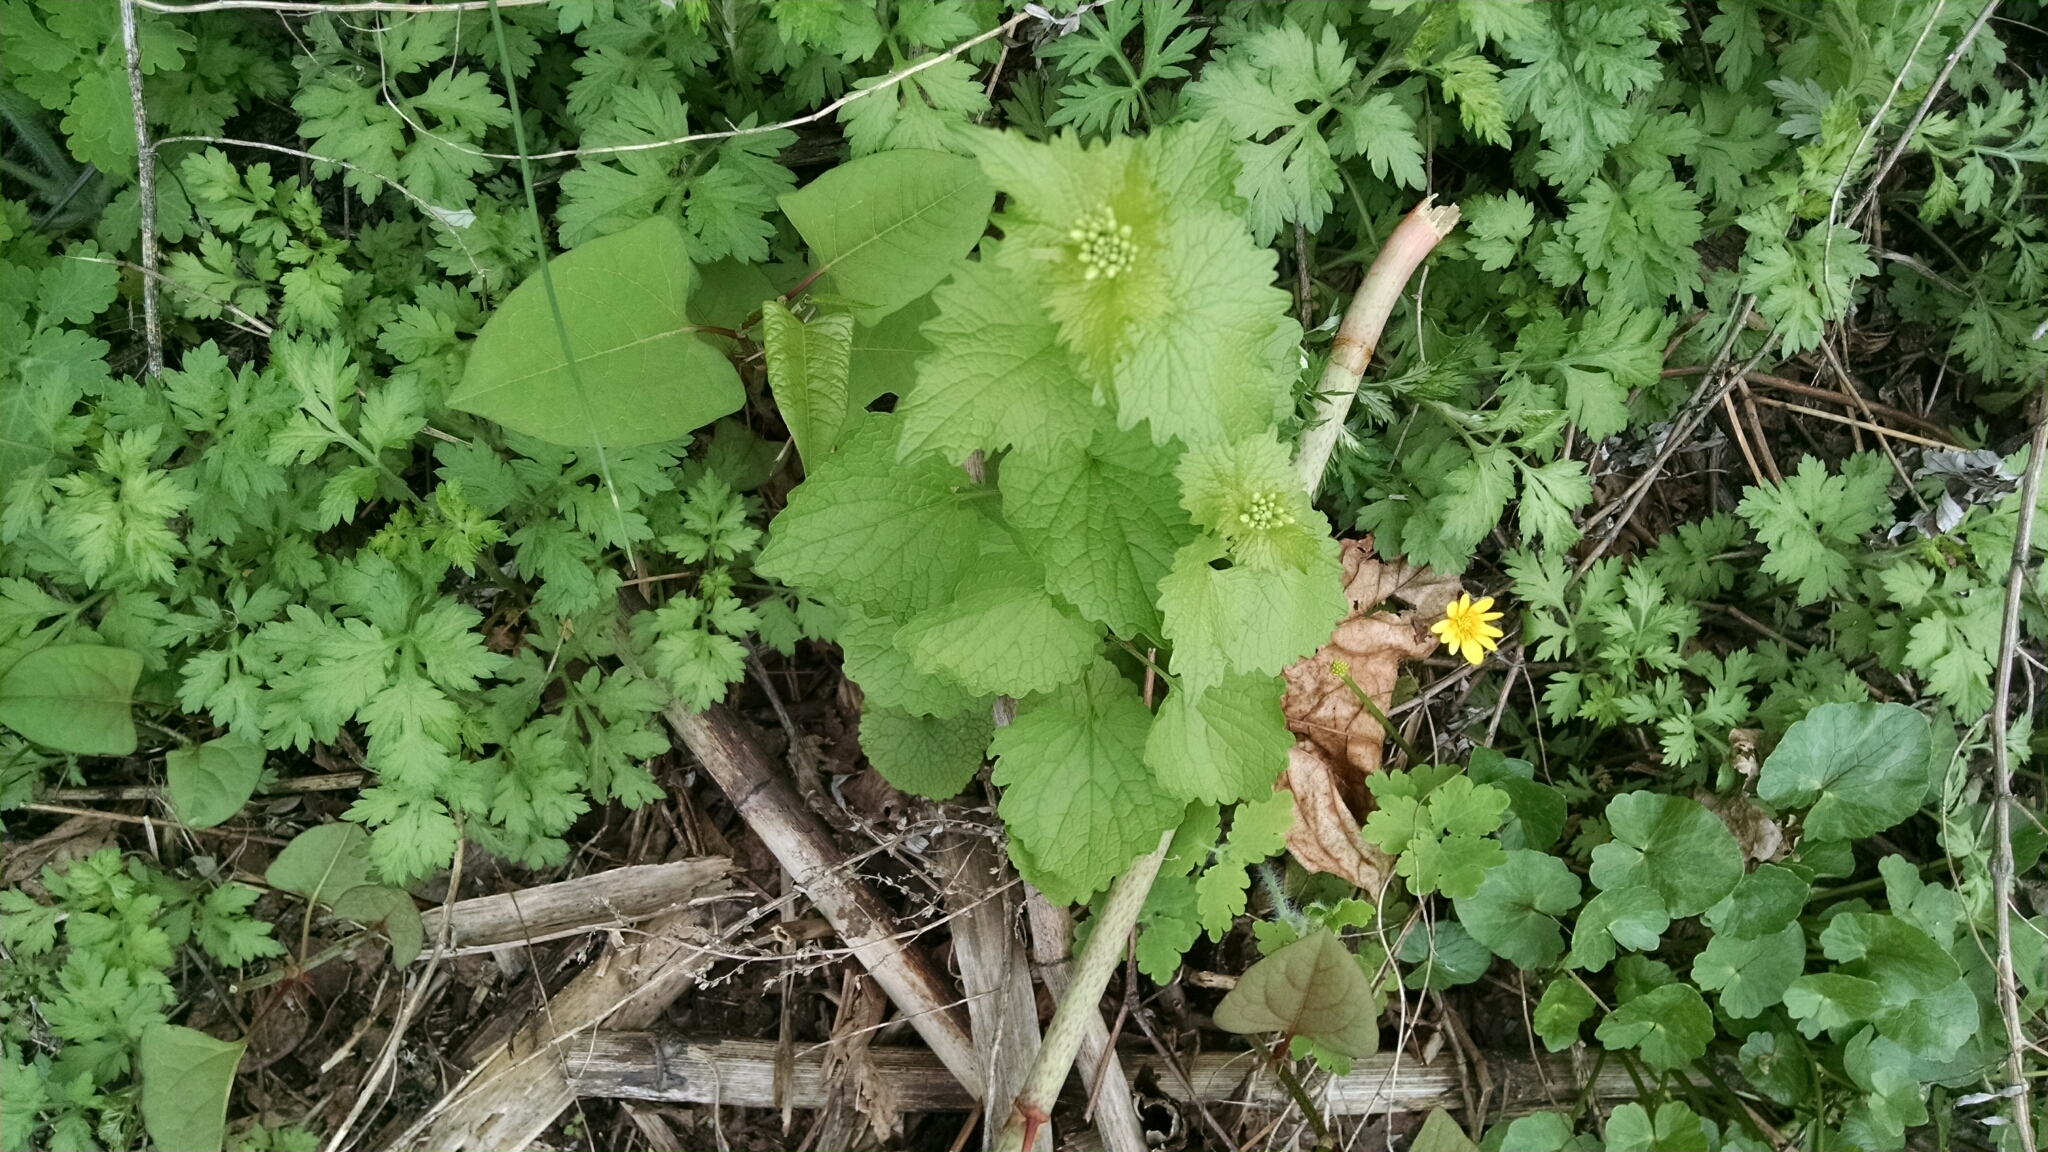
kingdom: Plantae
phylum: Tracheophyta
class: Magnoliopsida
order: Brassicales
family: Brassicaceae
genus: Alliaria
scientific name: Alliaria petiolata
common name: Garlic mustard
